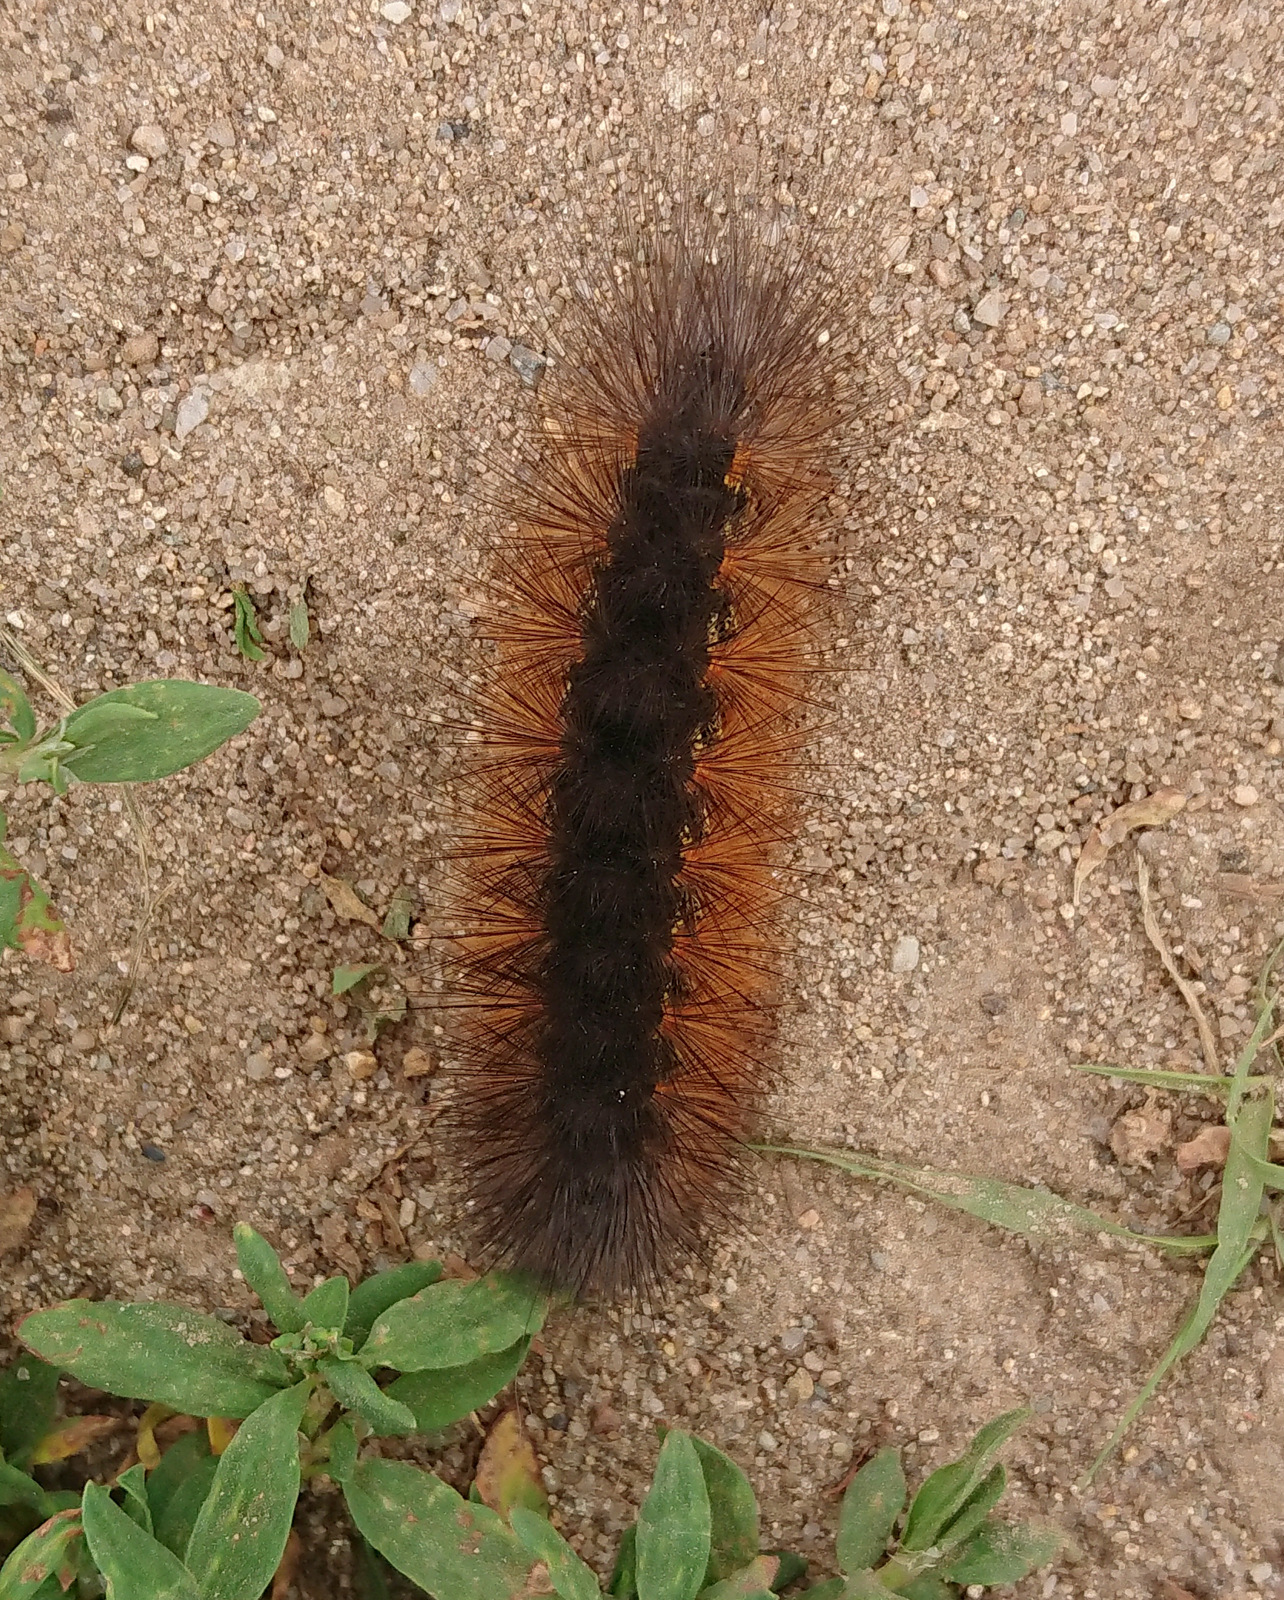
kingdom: Animalia
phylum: Arthropoda
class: Insecta
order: Lepidoptera
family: Erebidae
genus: Estigmene
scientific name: Estigmene acrea
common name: Salt marsh moth
